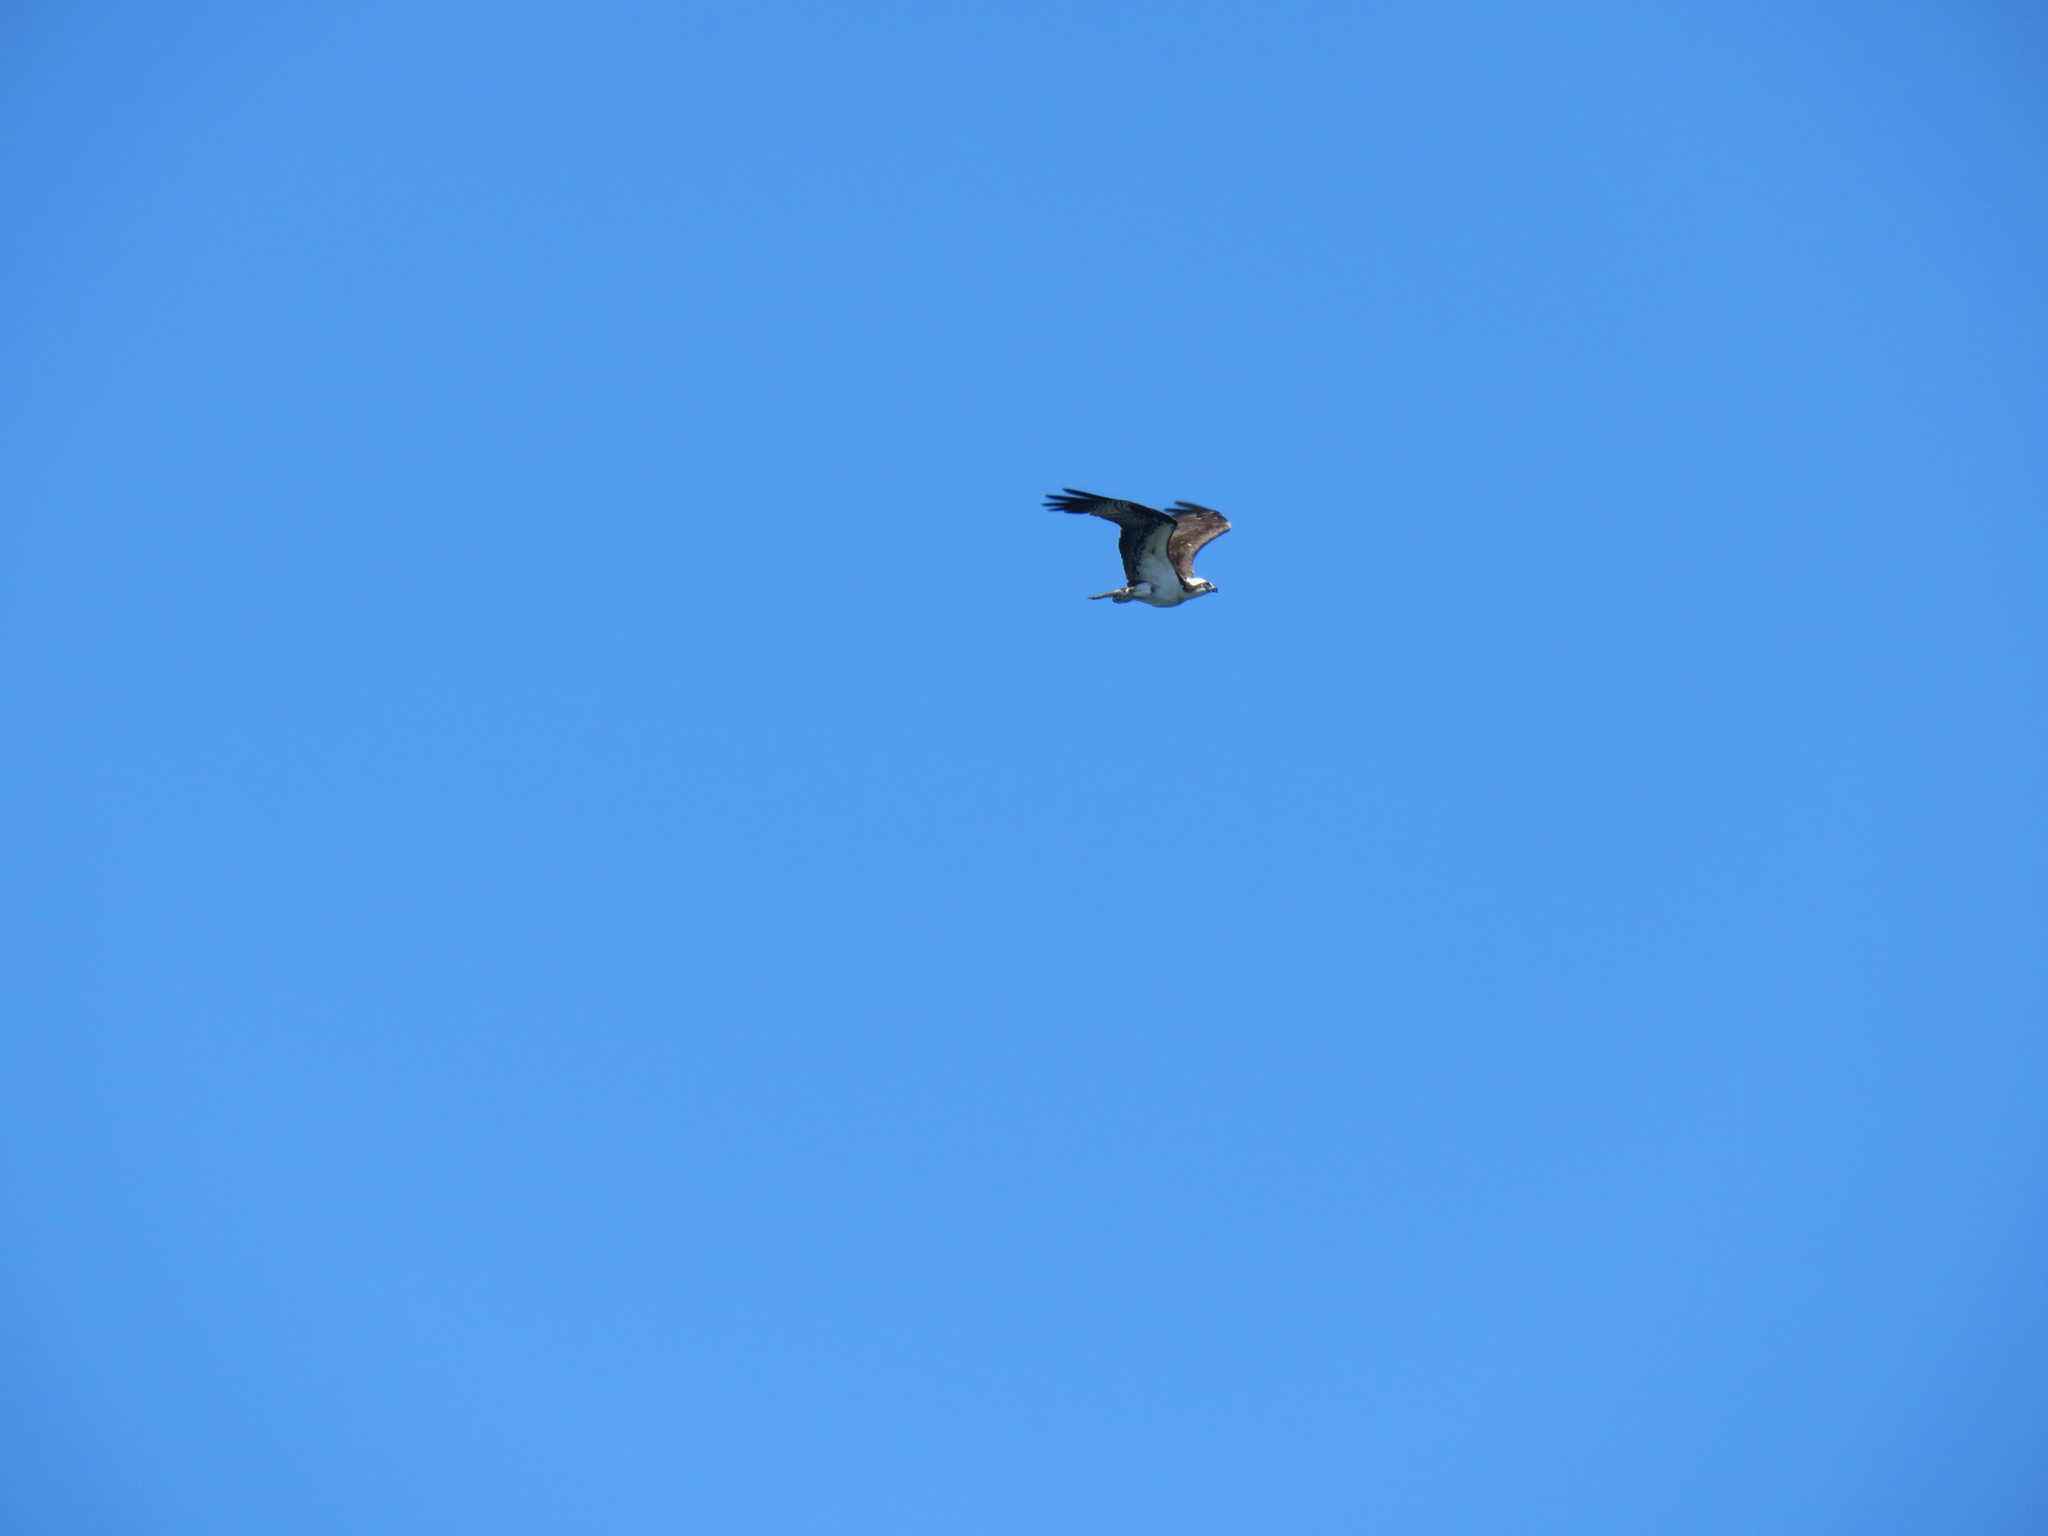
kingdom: Animalia
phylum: Chordata
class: Aves
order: Accipitriformes
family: Pandionidae
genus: Pandion
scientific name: Pandion haliaetus
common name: Osprey
